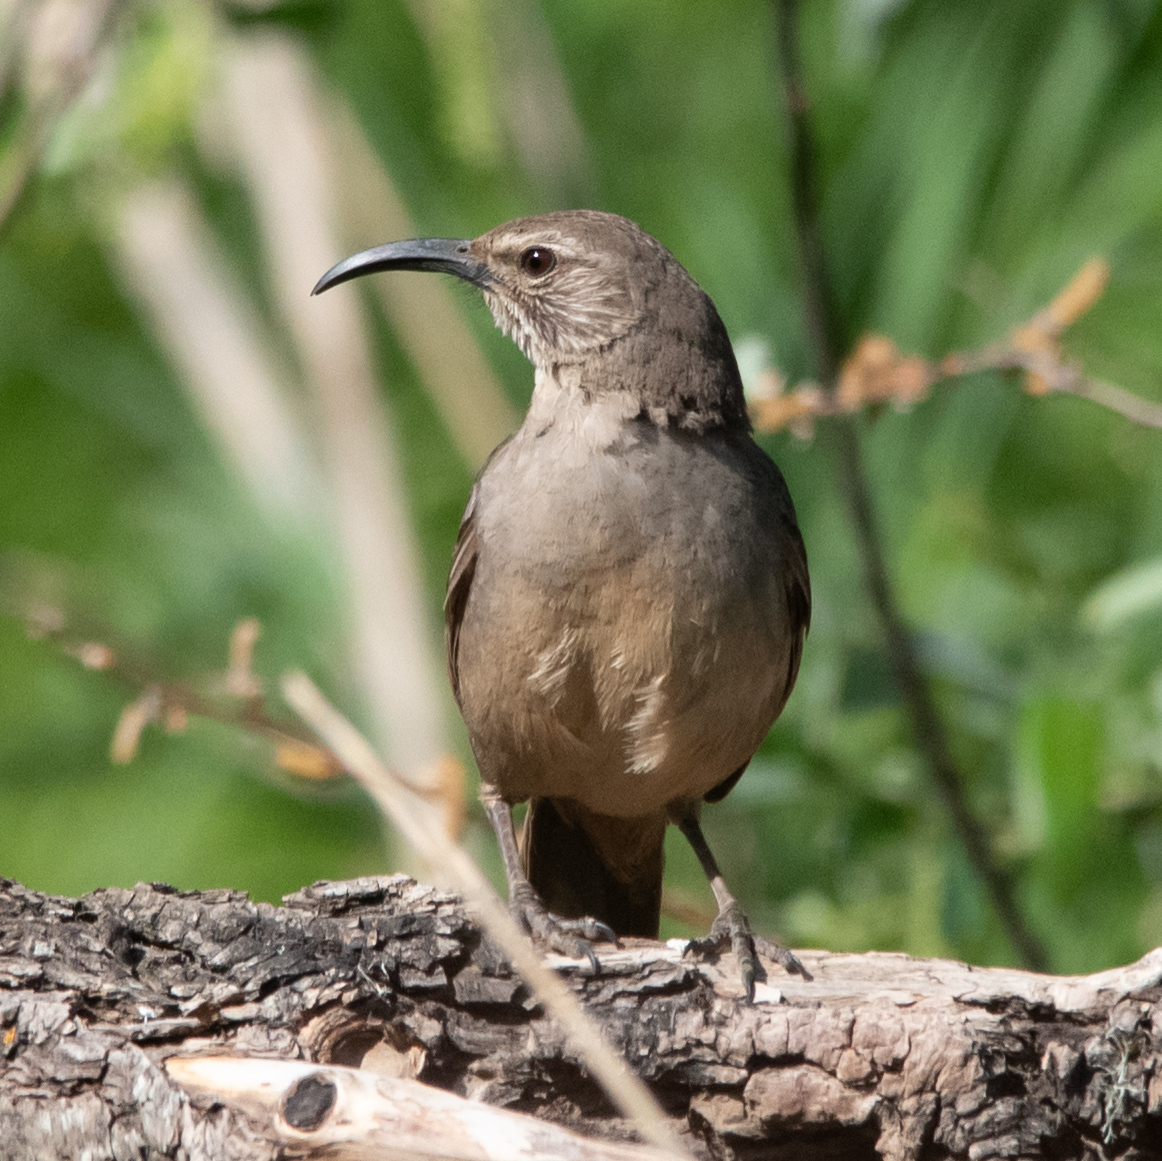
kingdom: Animalia
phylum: Chordata
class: Aves
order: Passeriformes
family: Mimidae
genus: Toxostoma
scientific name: Toxostoma redivivum
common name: California thrasher
